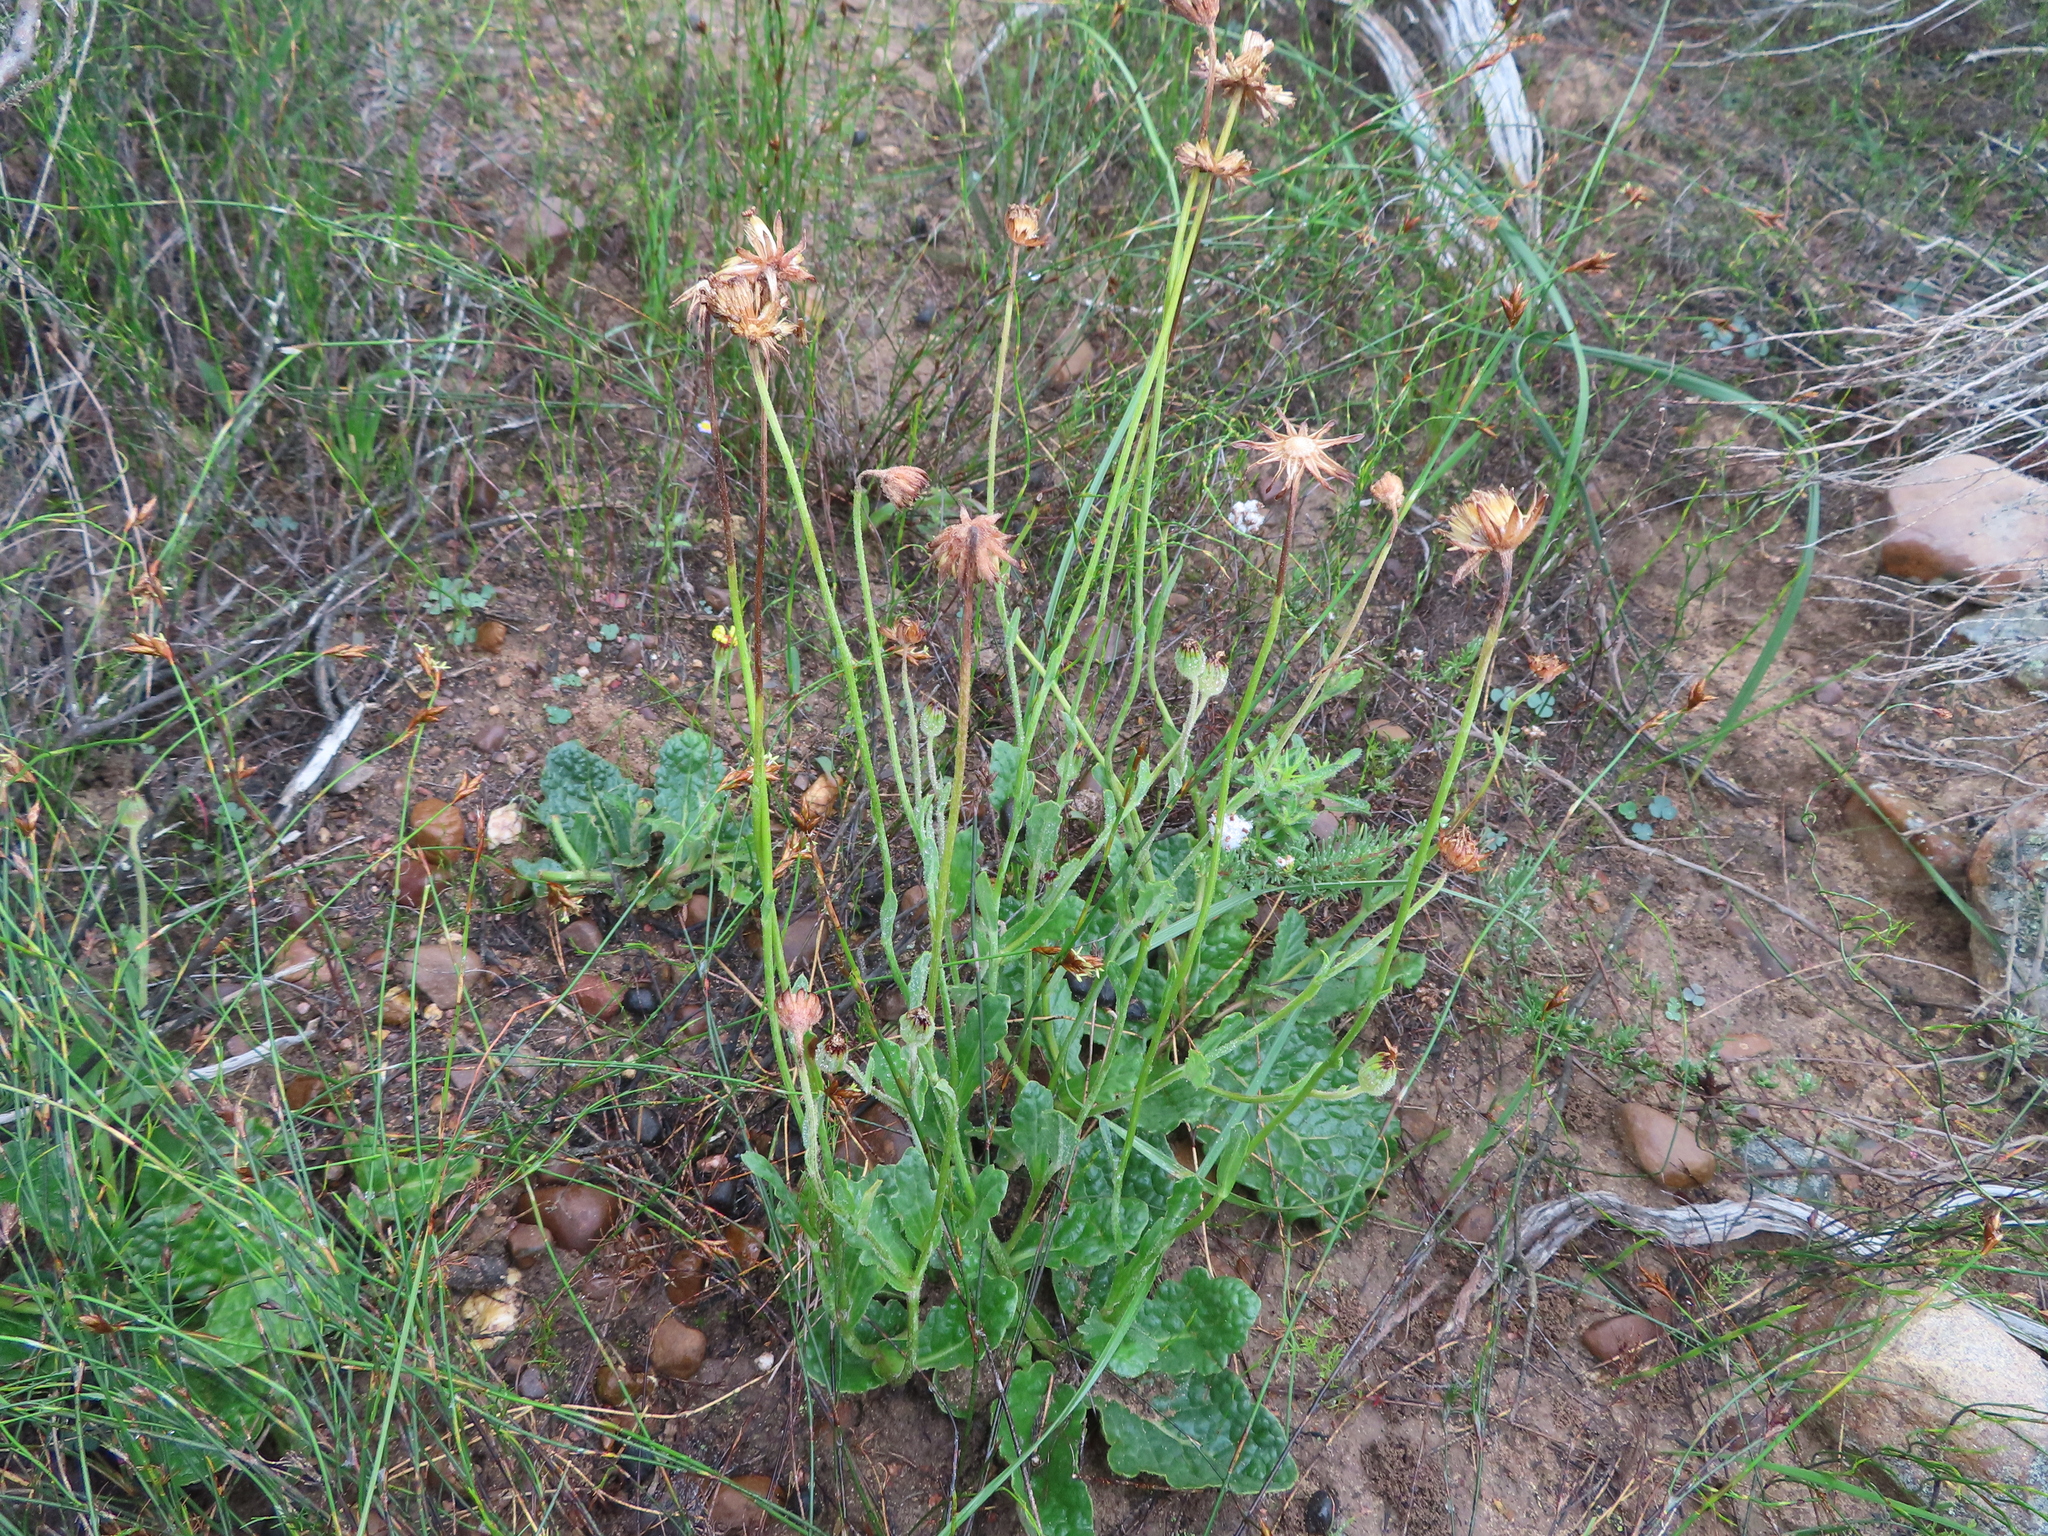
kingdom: Plantae
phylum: Tracheophyta
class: Magnoliopsida
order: Asterales
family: Asteraceae
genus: Othonna
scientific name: Othonna heterophylla
